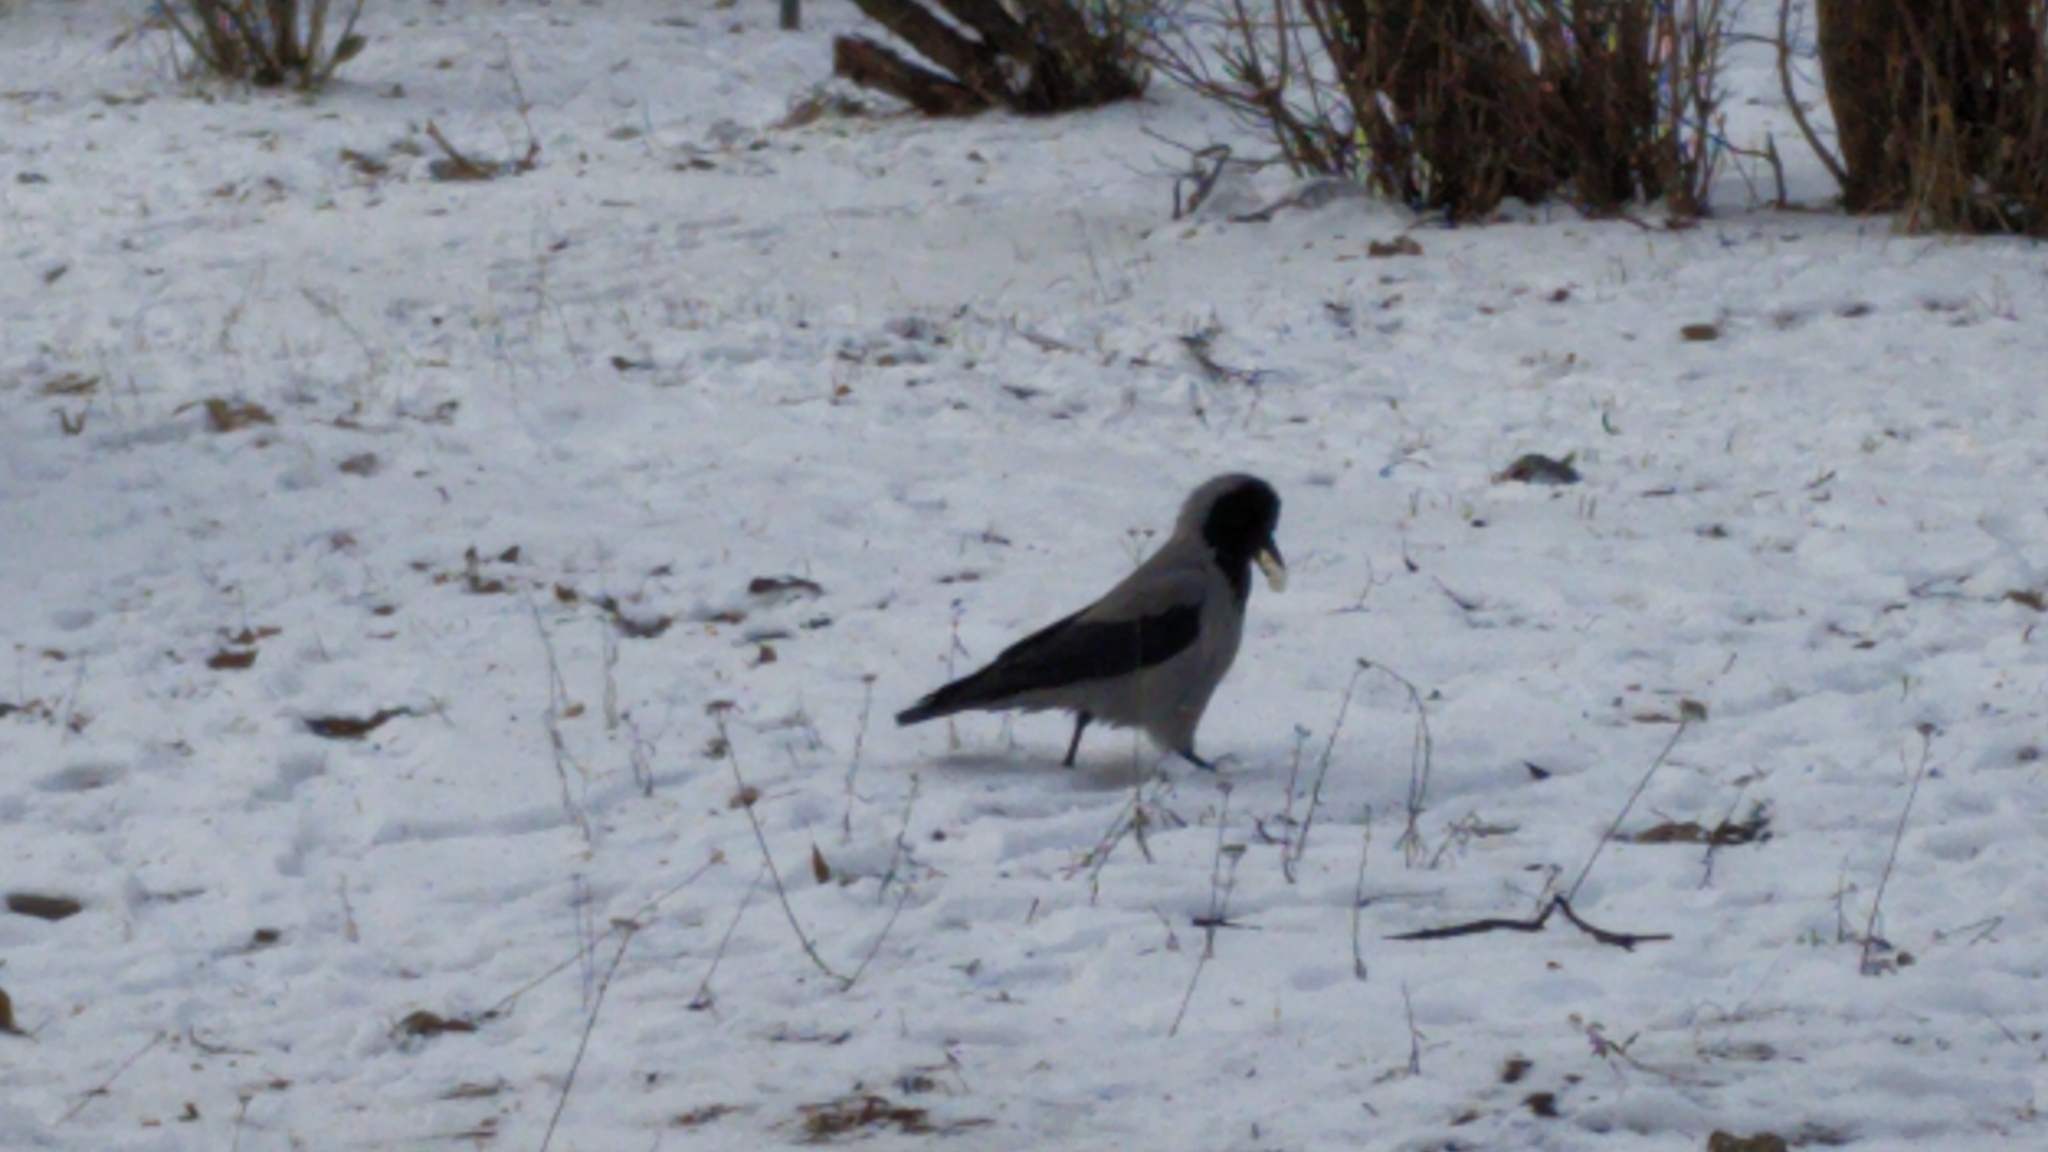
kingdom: Animalia
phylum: Chordata
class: Aves
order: Passeriformes
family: Corvidae
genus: Corvus
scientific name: Corvus cornix
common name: Hooded crow
